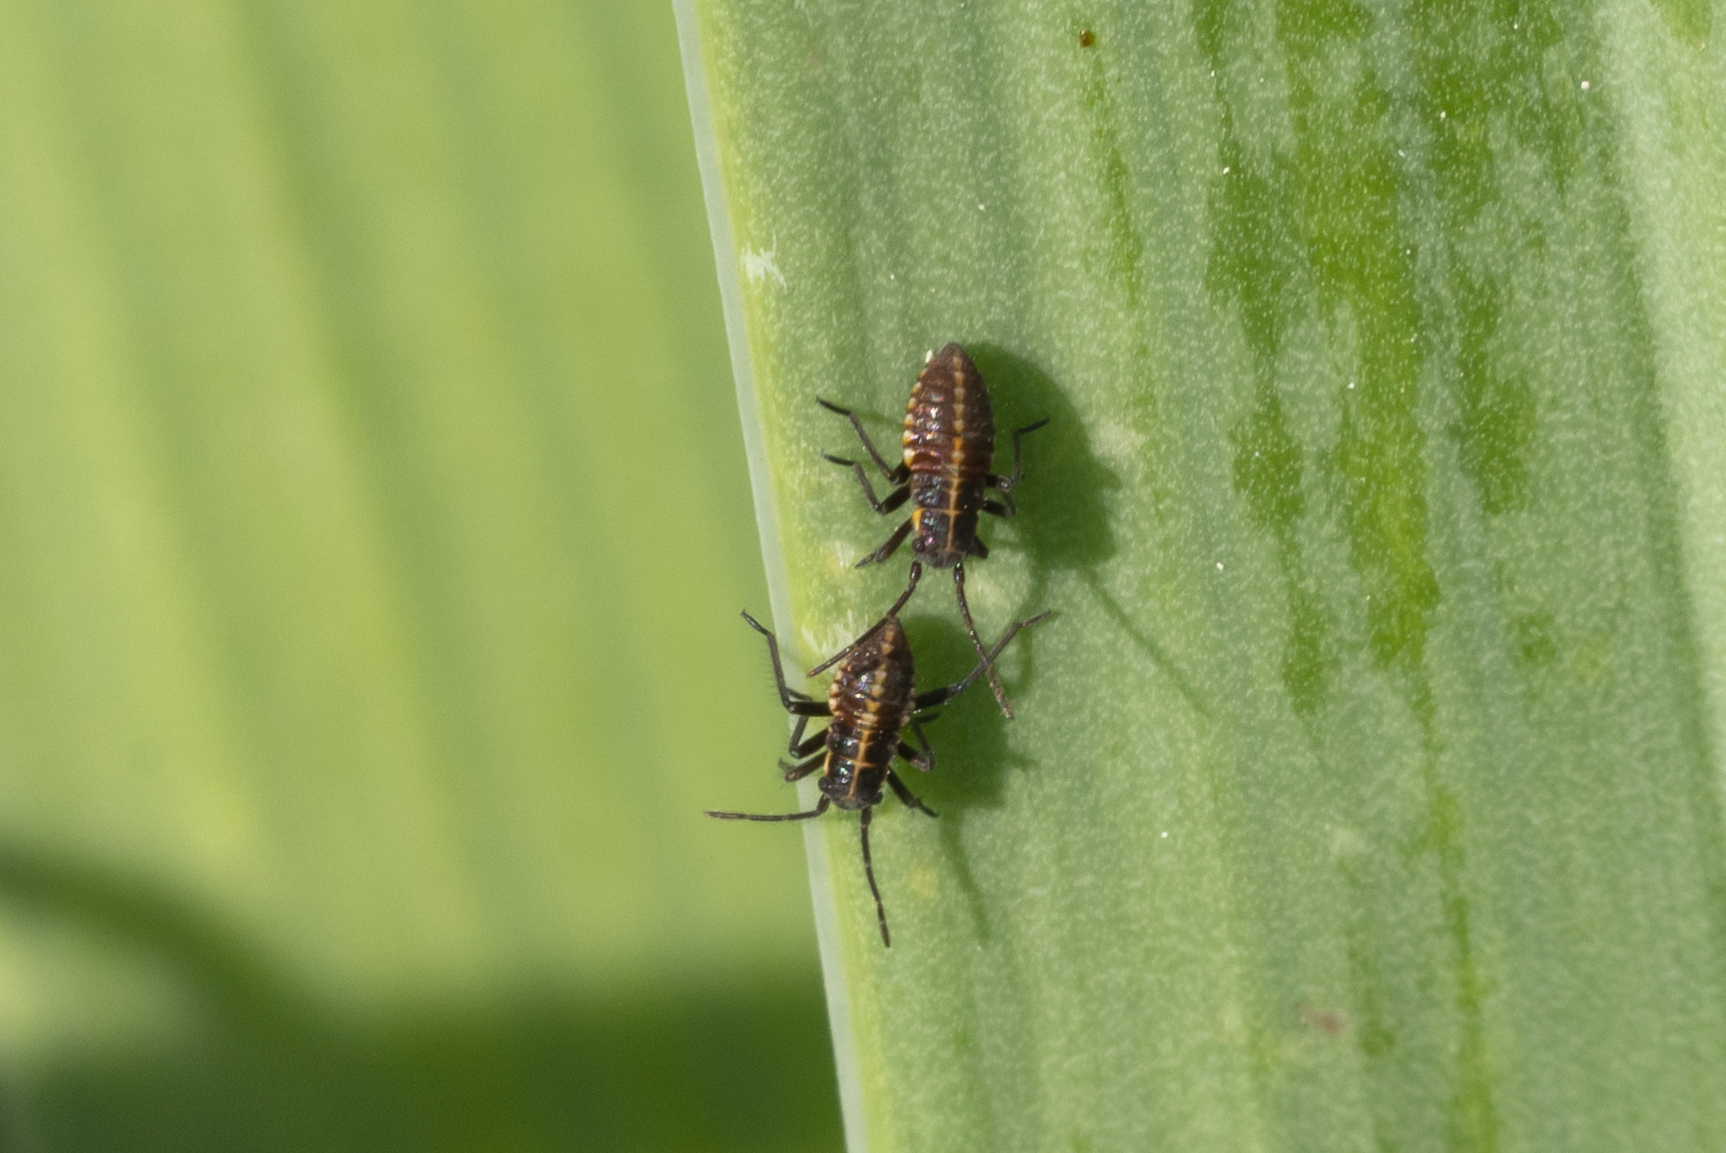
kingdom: Animalia
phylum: Arthropoda
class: Insecta
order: Hemiptera
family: Miridae
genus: Horistus
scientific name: Horistus infuscatus
